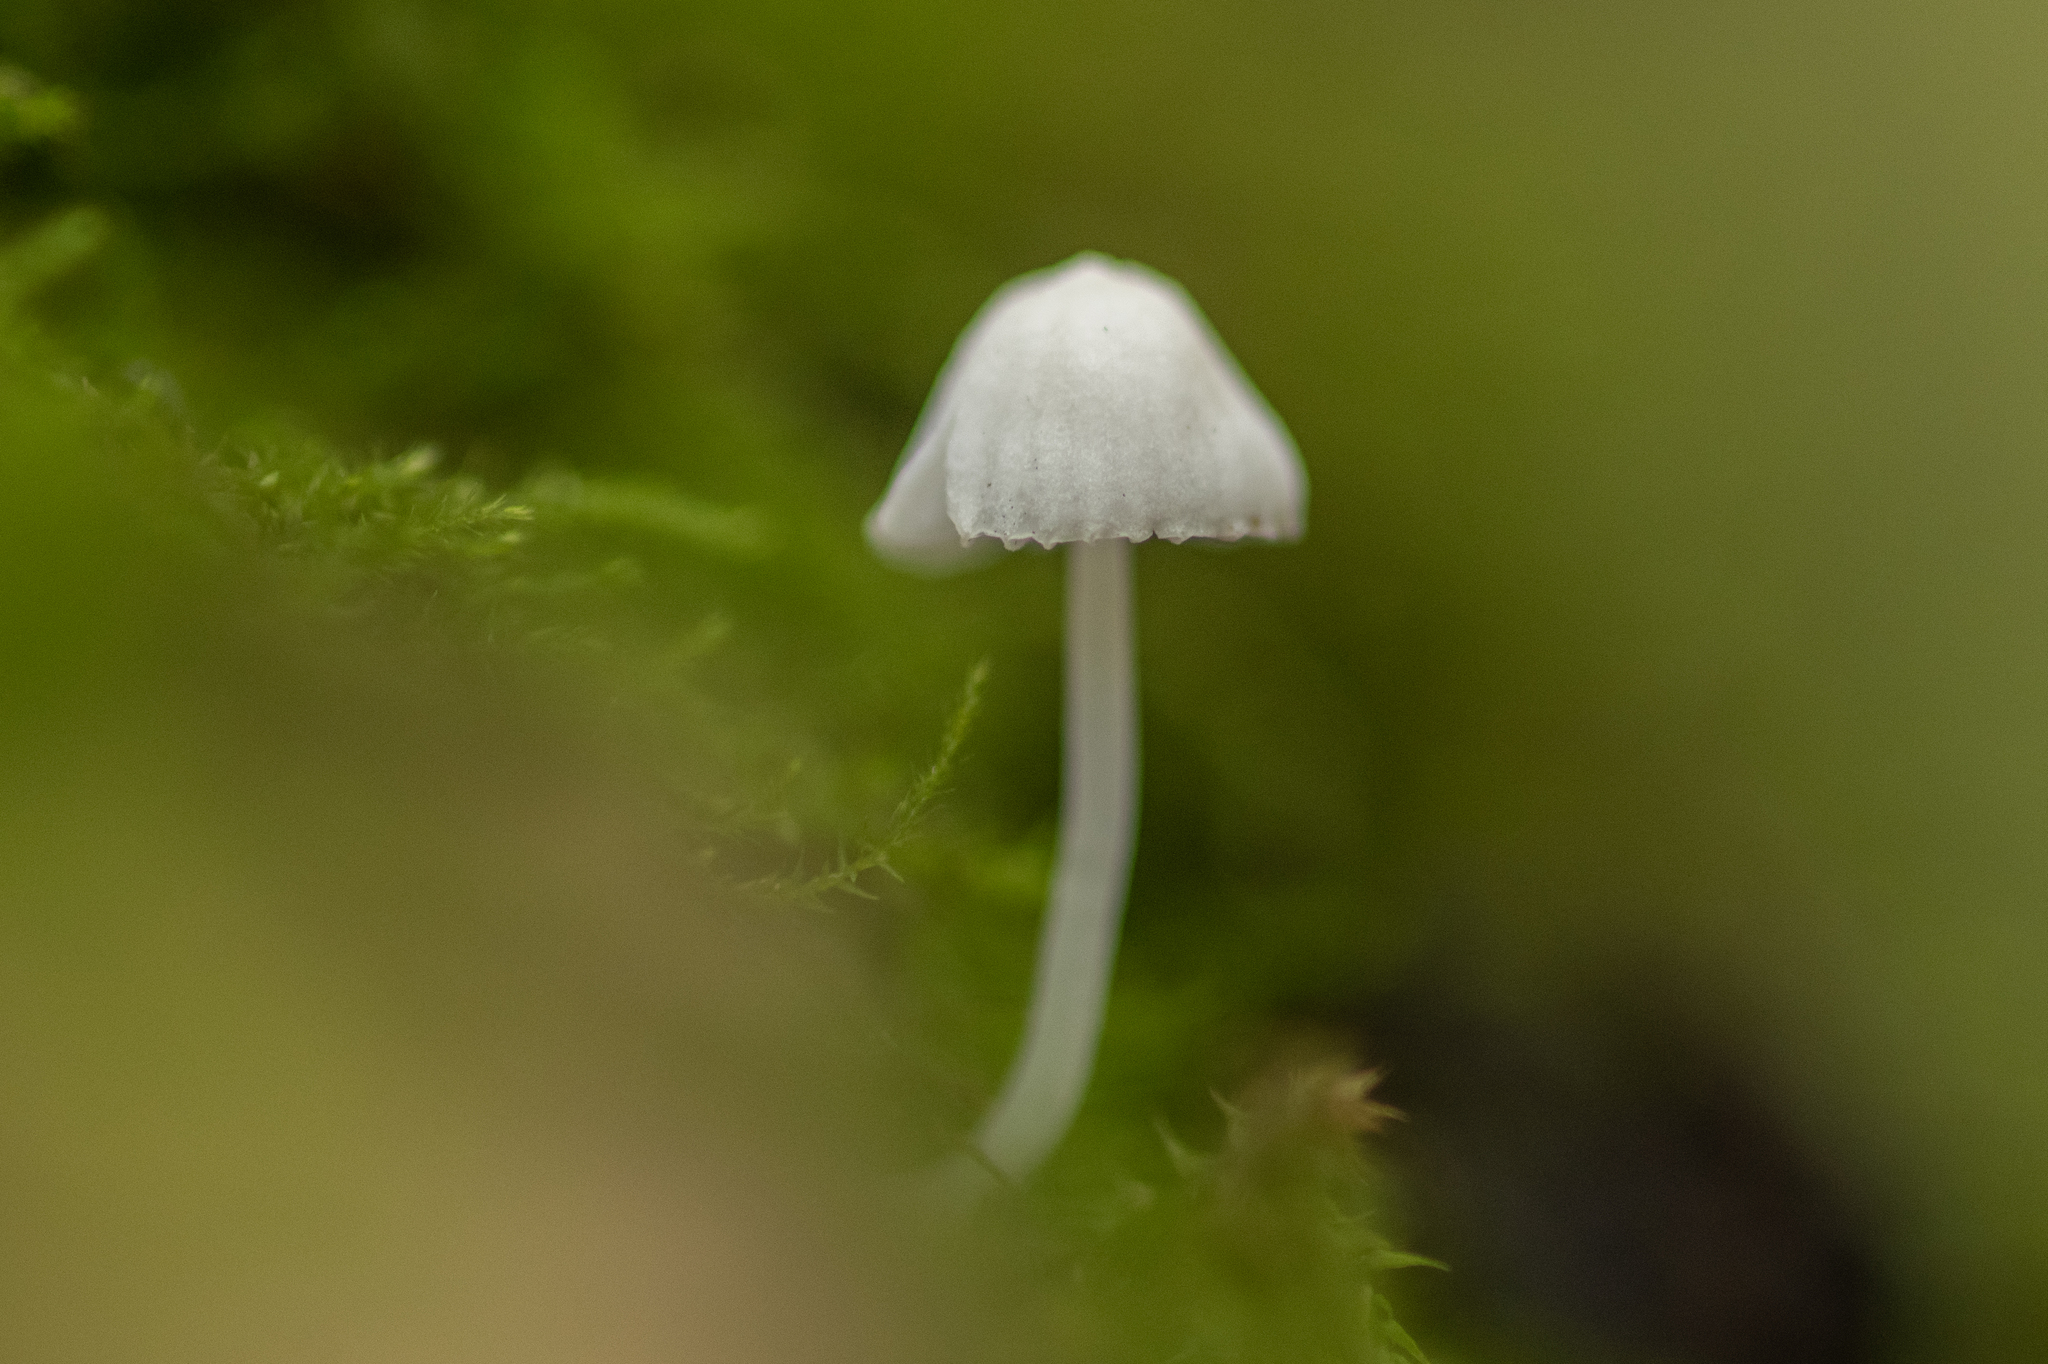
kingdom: Fungi
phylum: Basidiomycota
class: Agaricomycetes
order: Agaricales
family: Mycenaceae
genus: Mycena
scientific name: Mycena filopes
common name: Iodine bonnet
